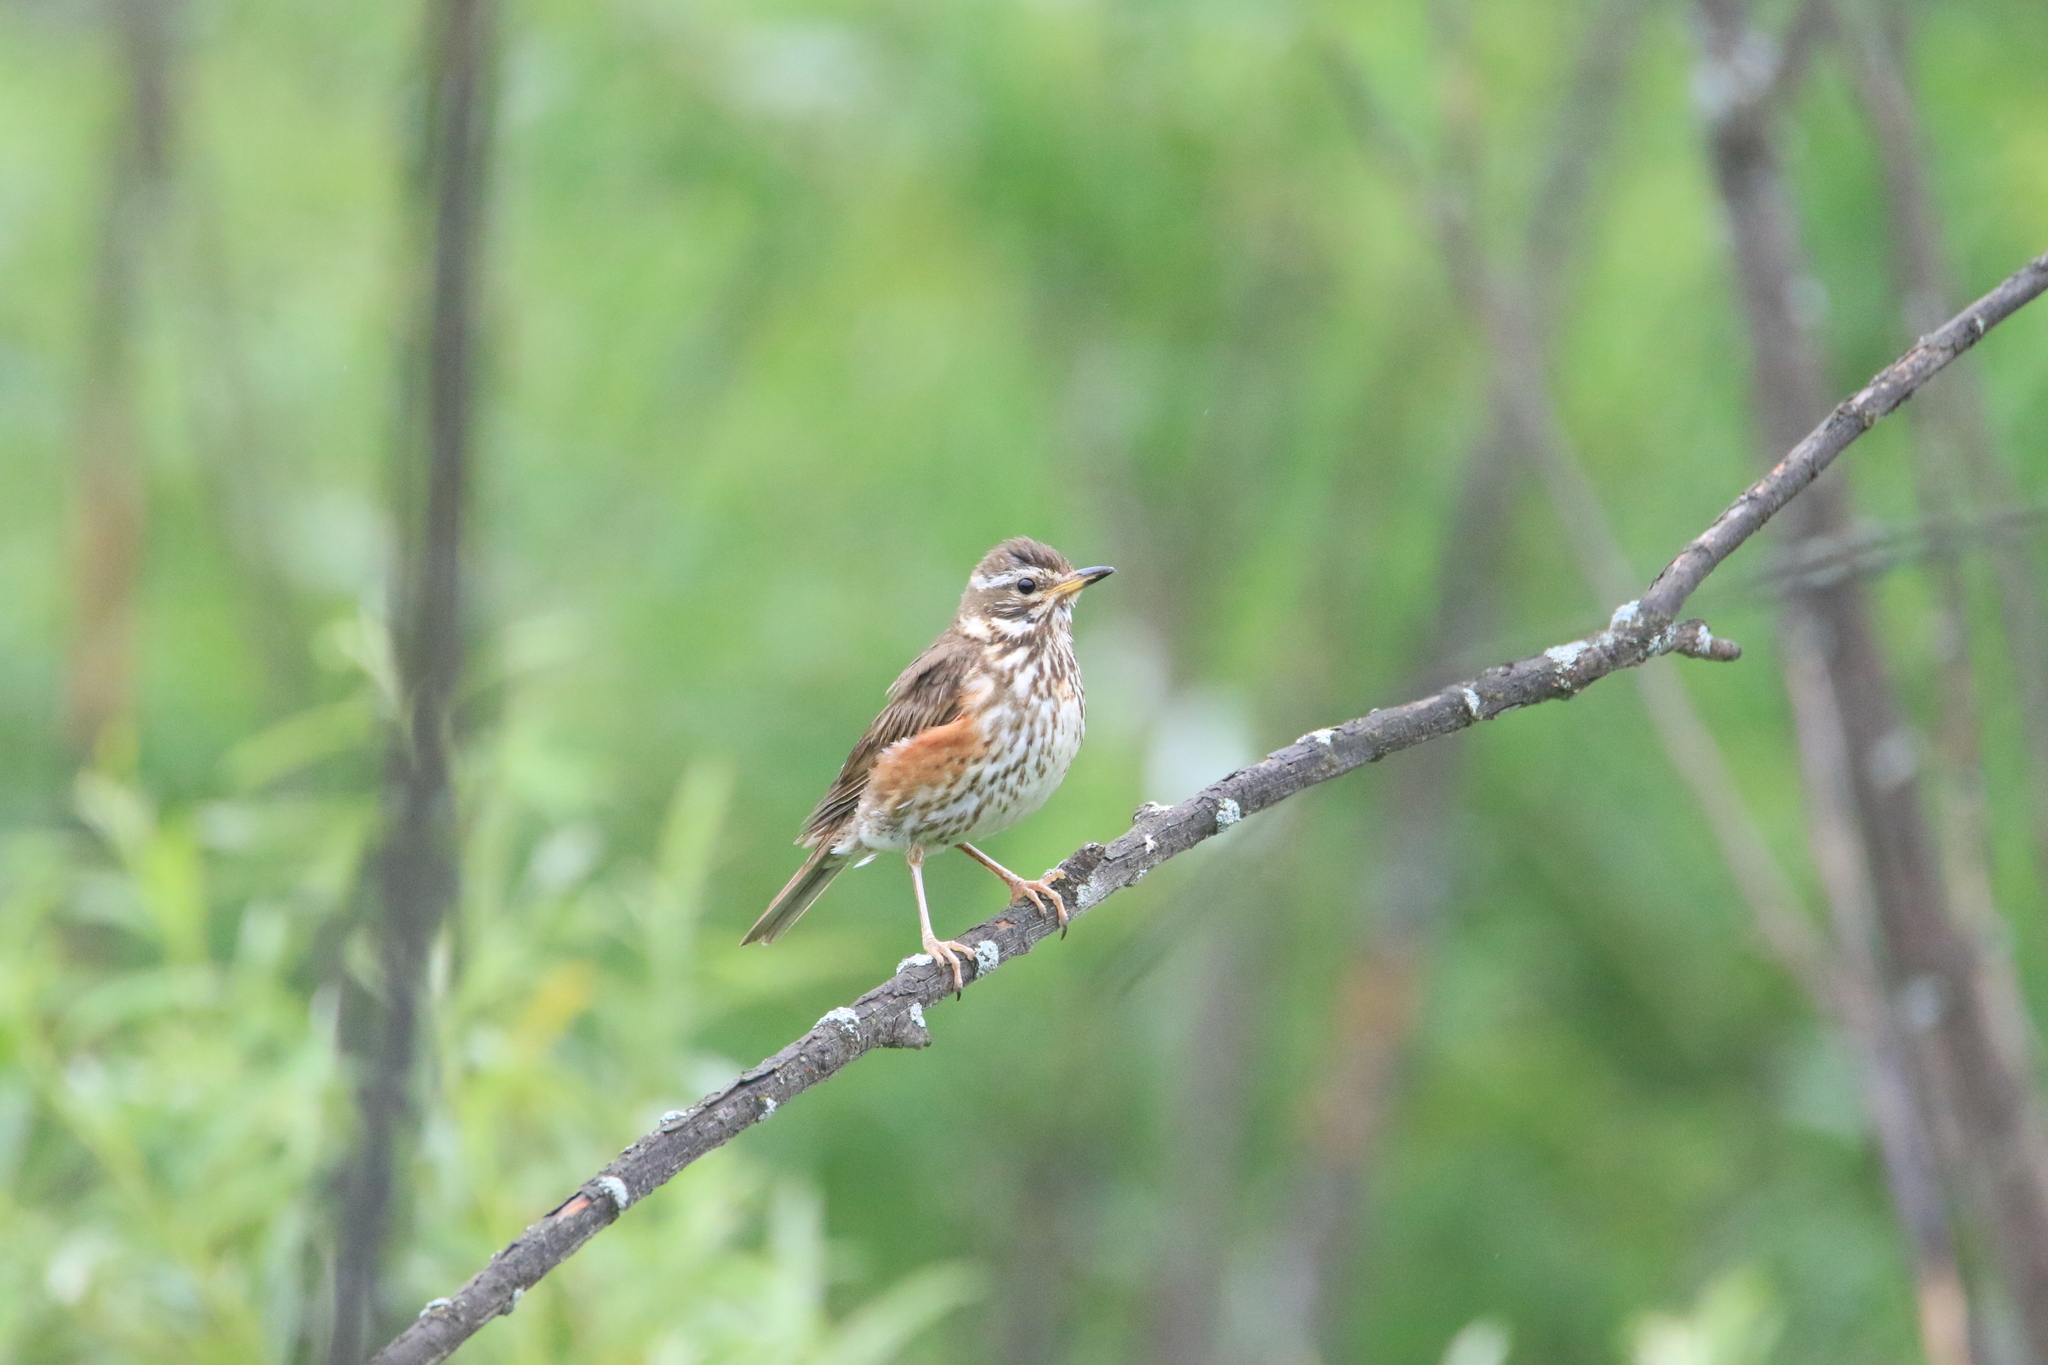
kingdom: Animalia
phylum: Chordata
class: Aves
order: Passeriformes
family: Turdidae
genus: Turdus
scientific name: Turdus iliacus
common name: Redwing
